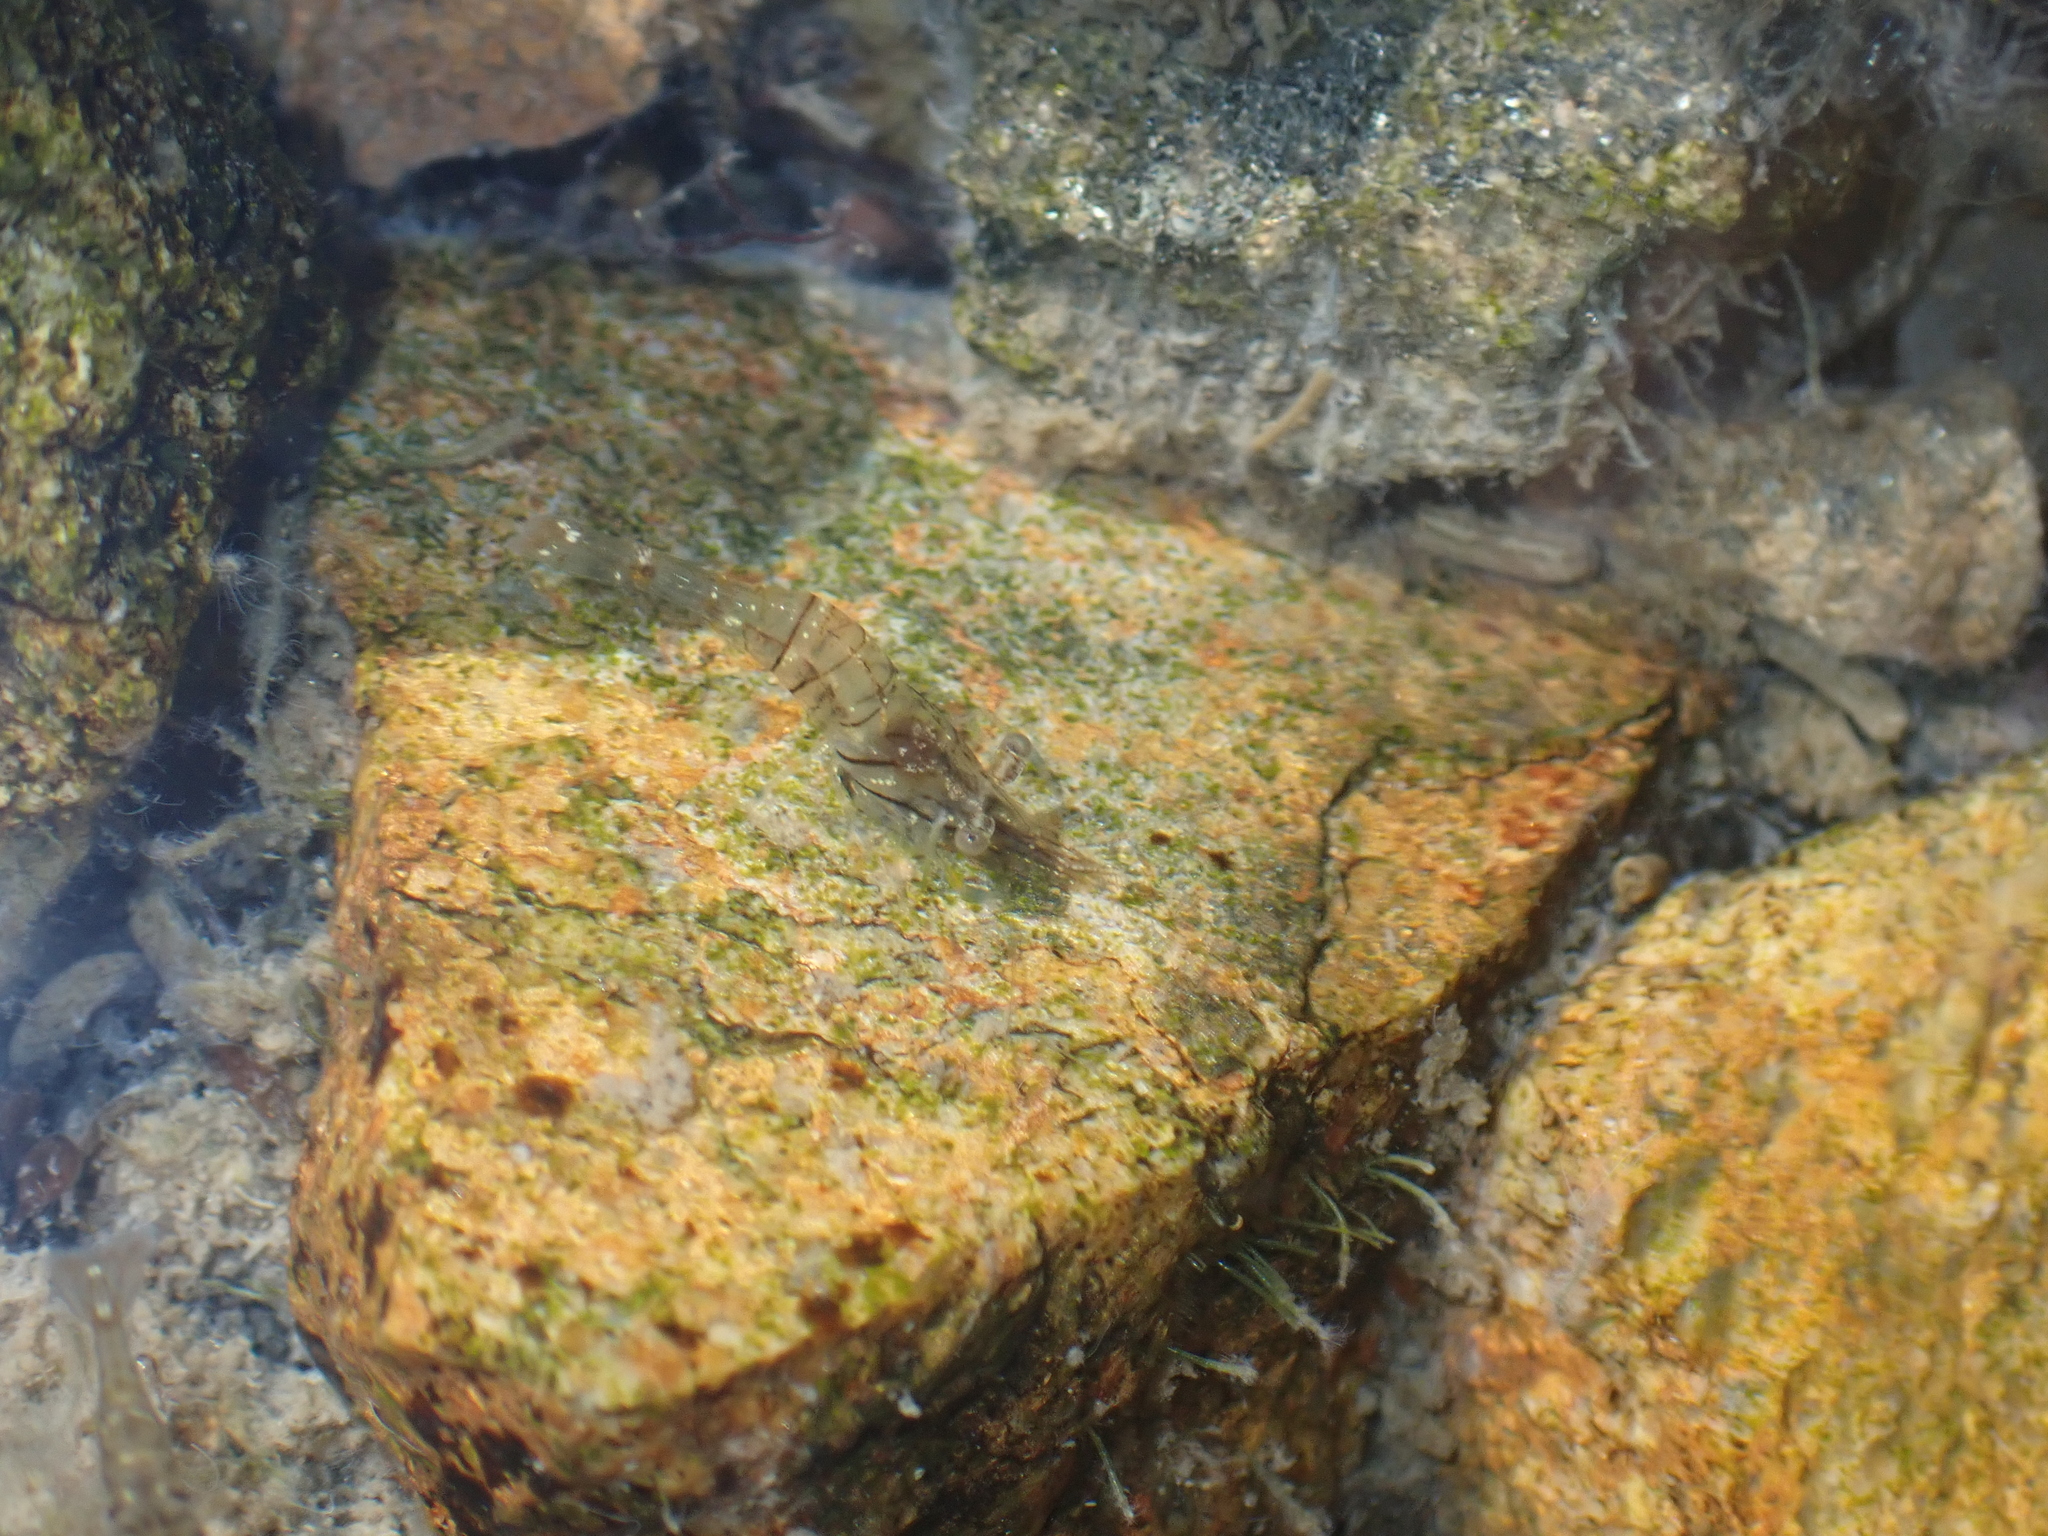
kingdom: Animalia
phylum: Arthropoda
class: Malacostraca
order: Decapoda
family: Palaemonidae
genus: Palaemon
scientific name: Palaemon elegans
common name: Grass prawm
